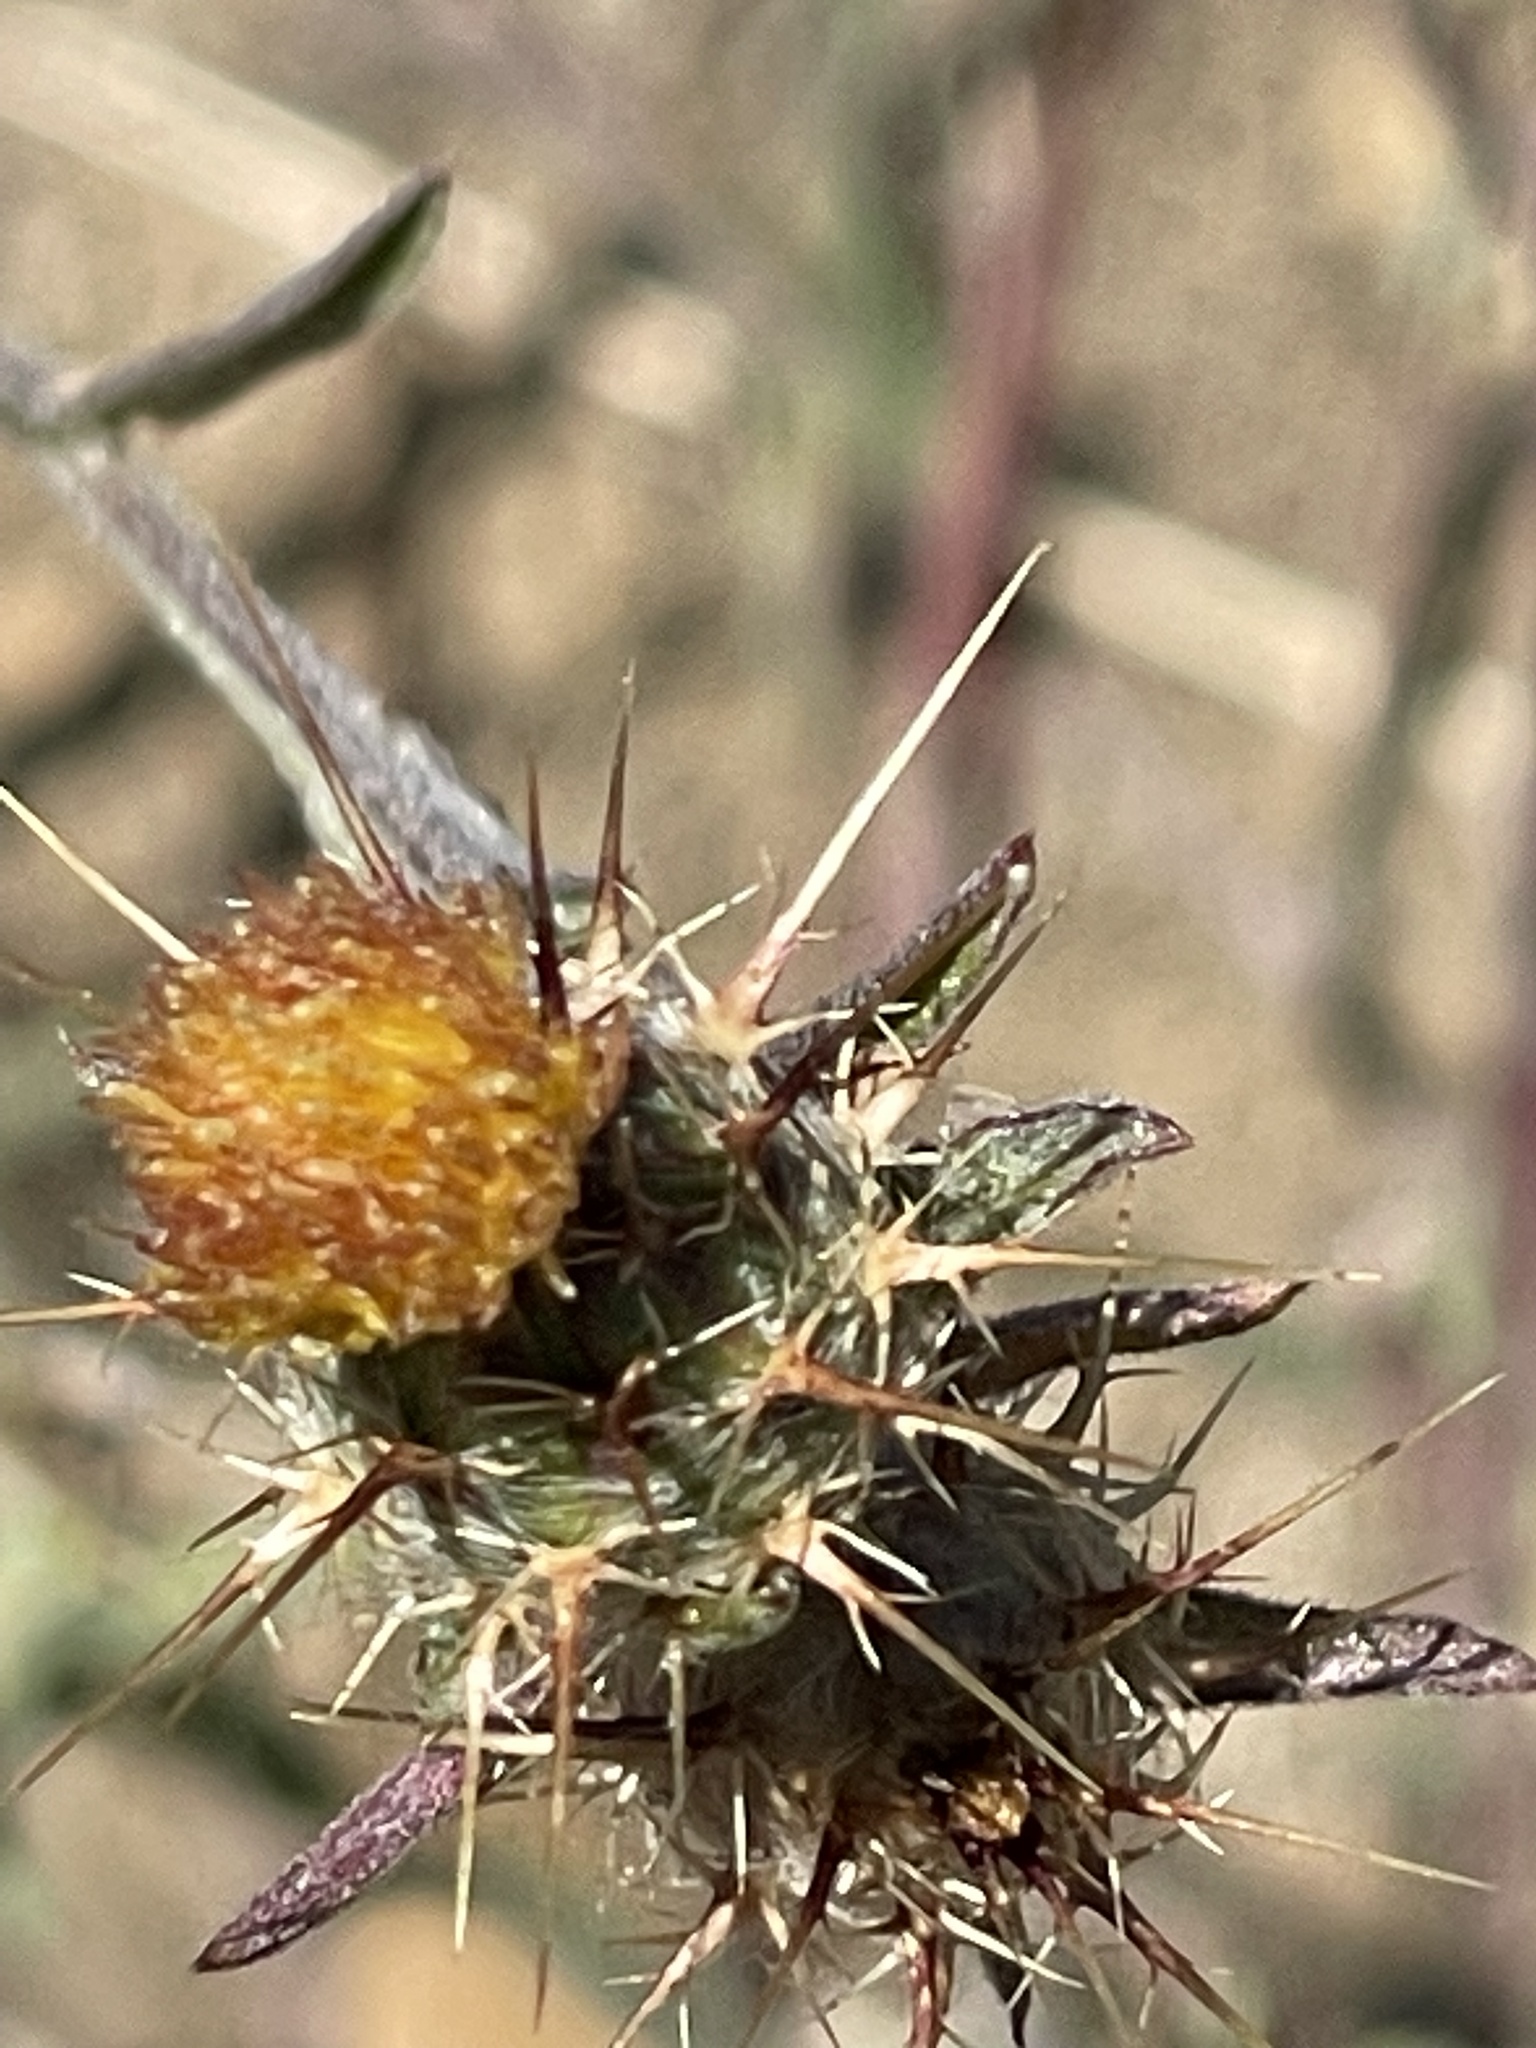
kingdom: Plantae
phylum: Tracheophyta
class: Magnoliopsida
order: Asterales
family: Asteraceae
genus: Centaurea
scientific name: Centaurea melitensis
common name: Maltese star-thistle
